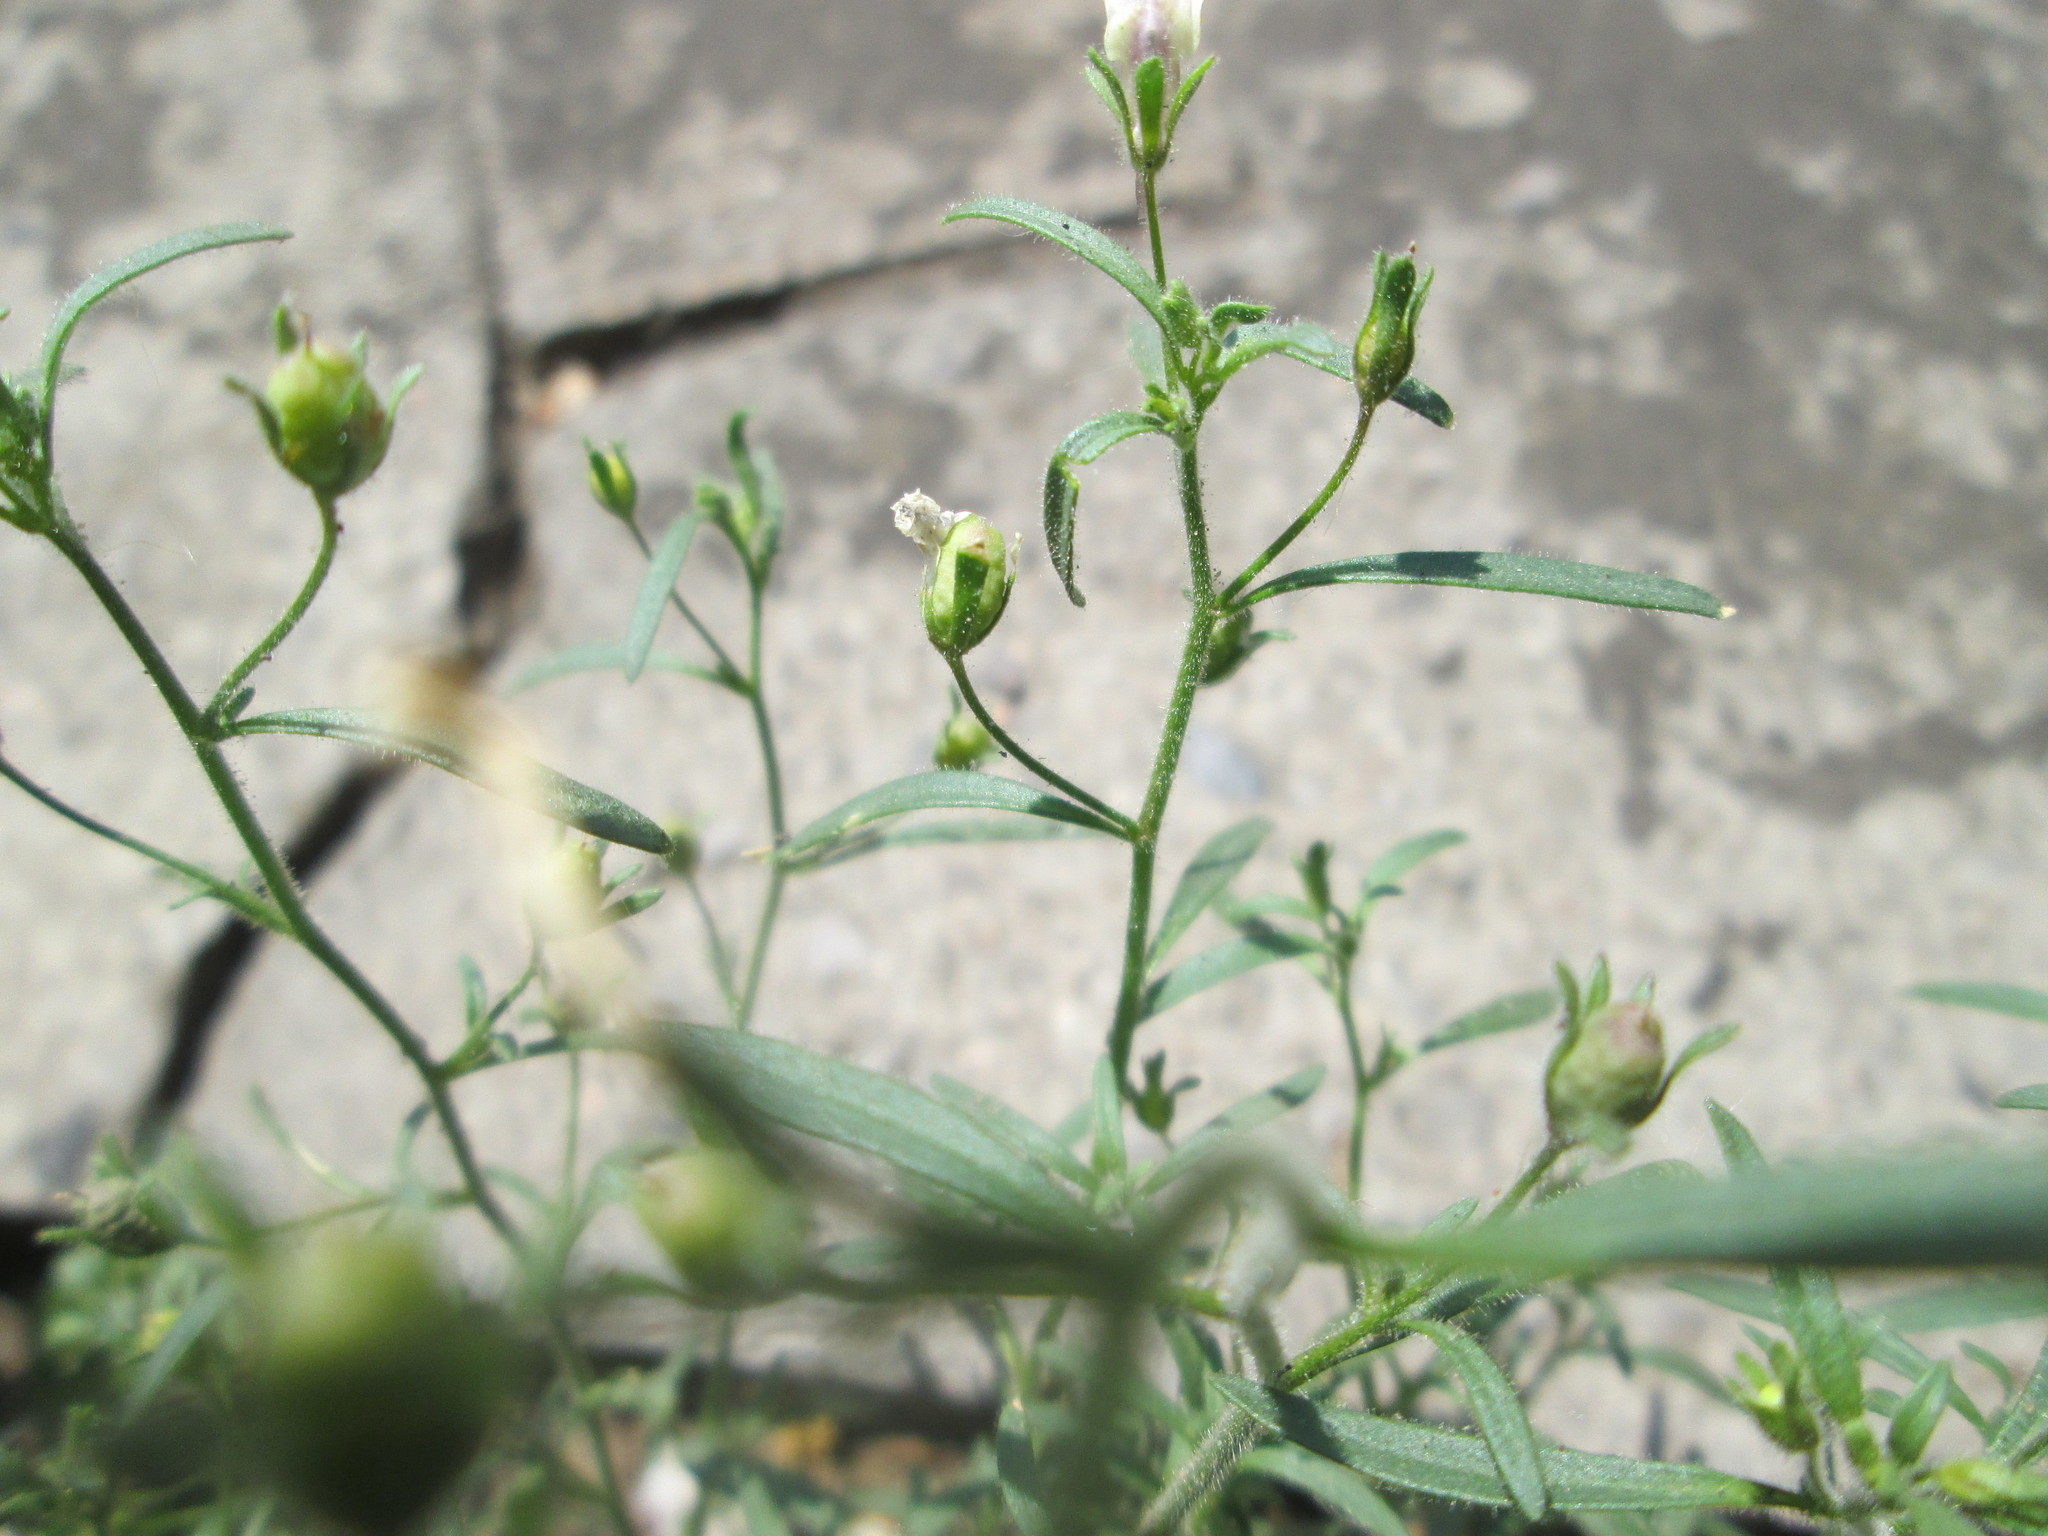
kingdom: Plantae
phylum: Tracheophyta
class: Magnoliopsida
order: Lamiales
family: Plantaginaceae
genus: Chaenorhinum
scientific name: Chaenorhinum minus
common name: Dwarf snapdragon
